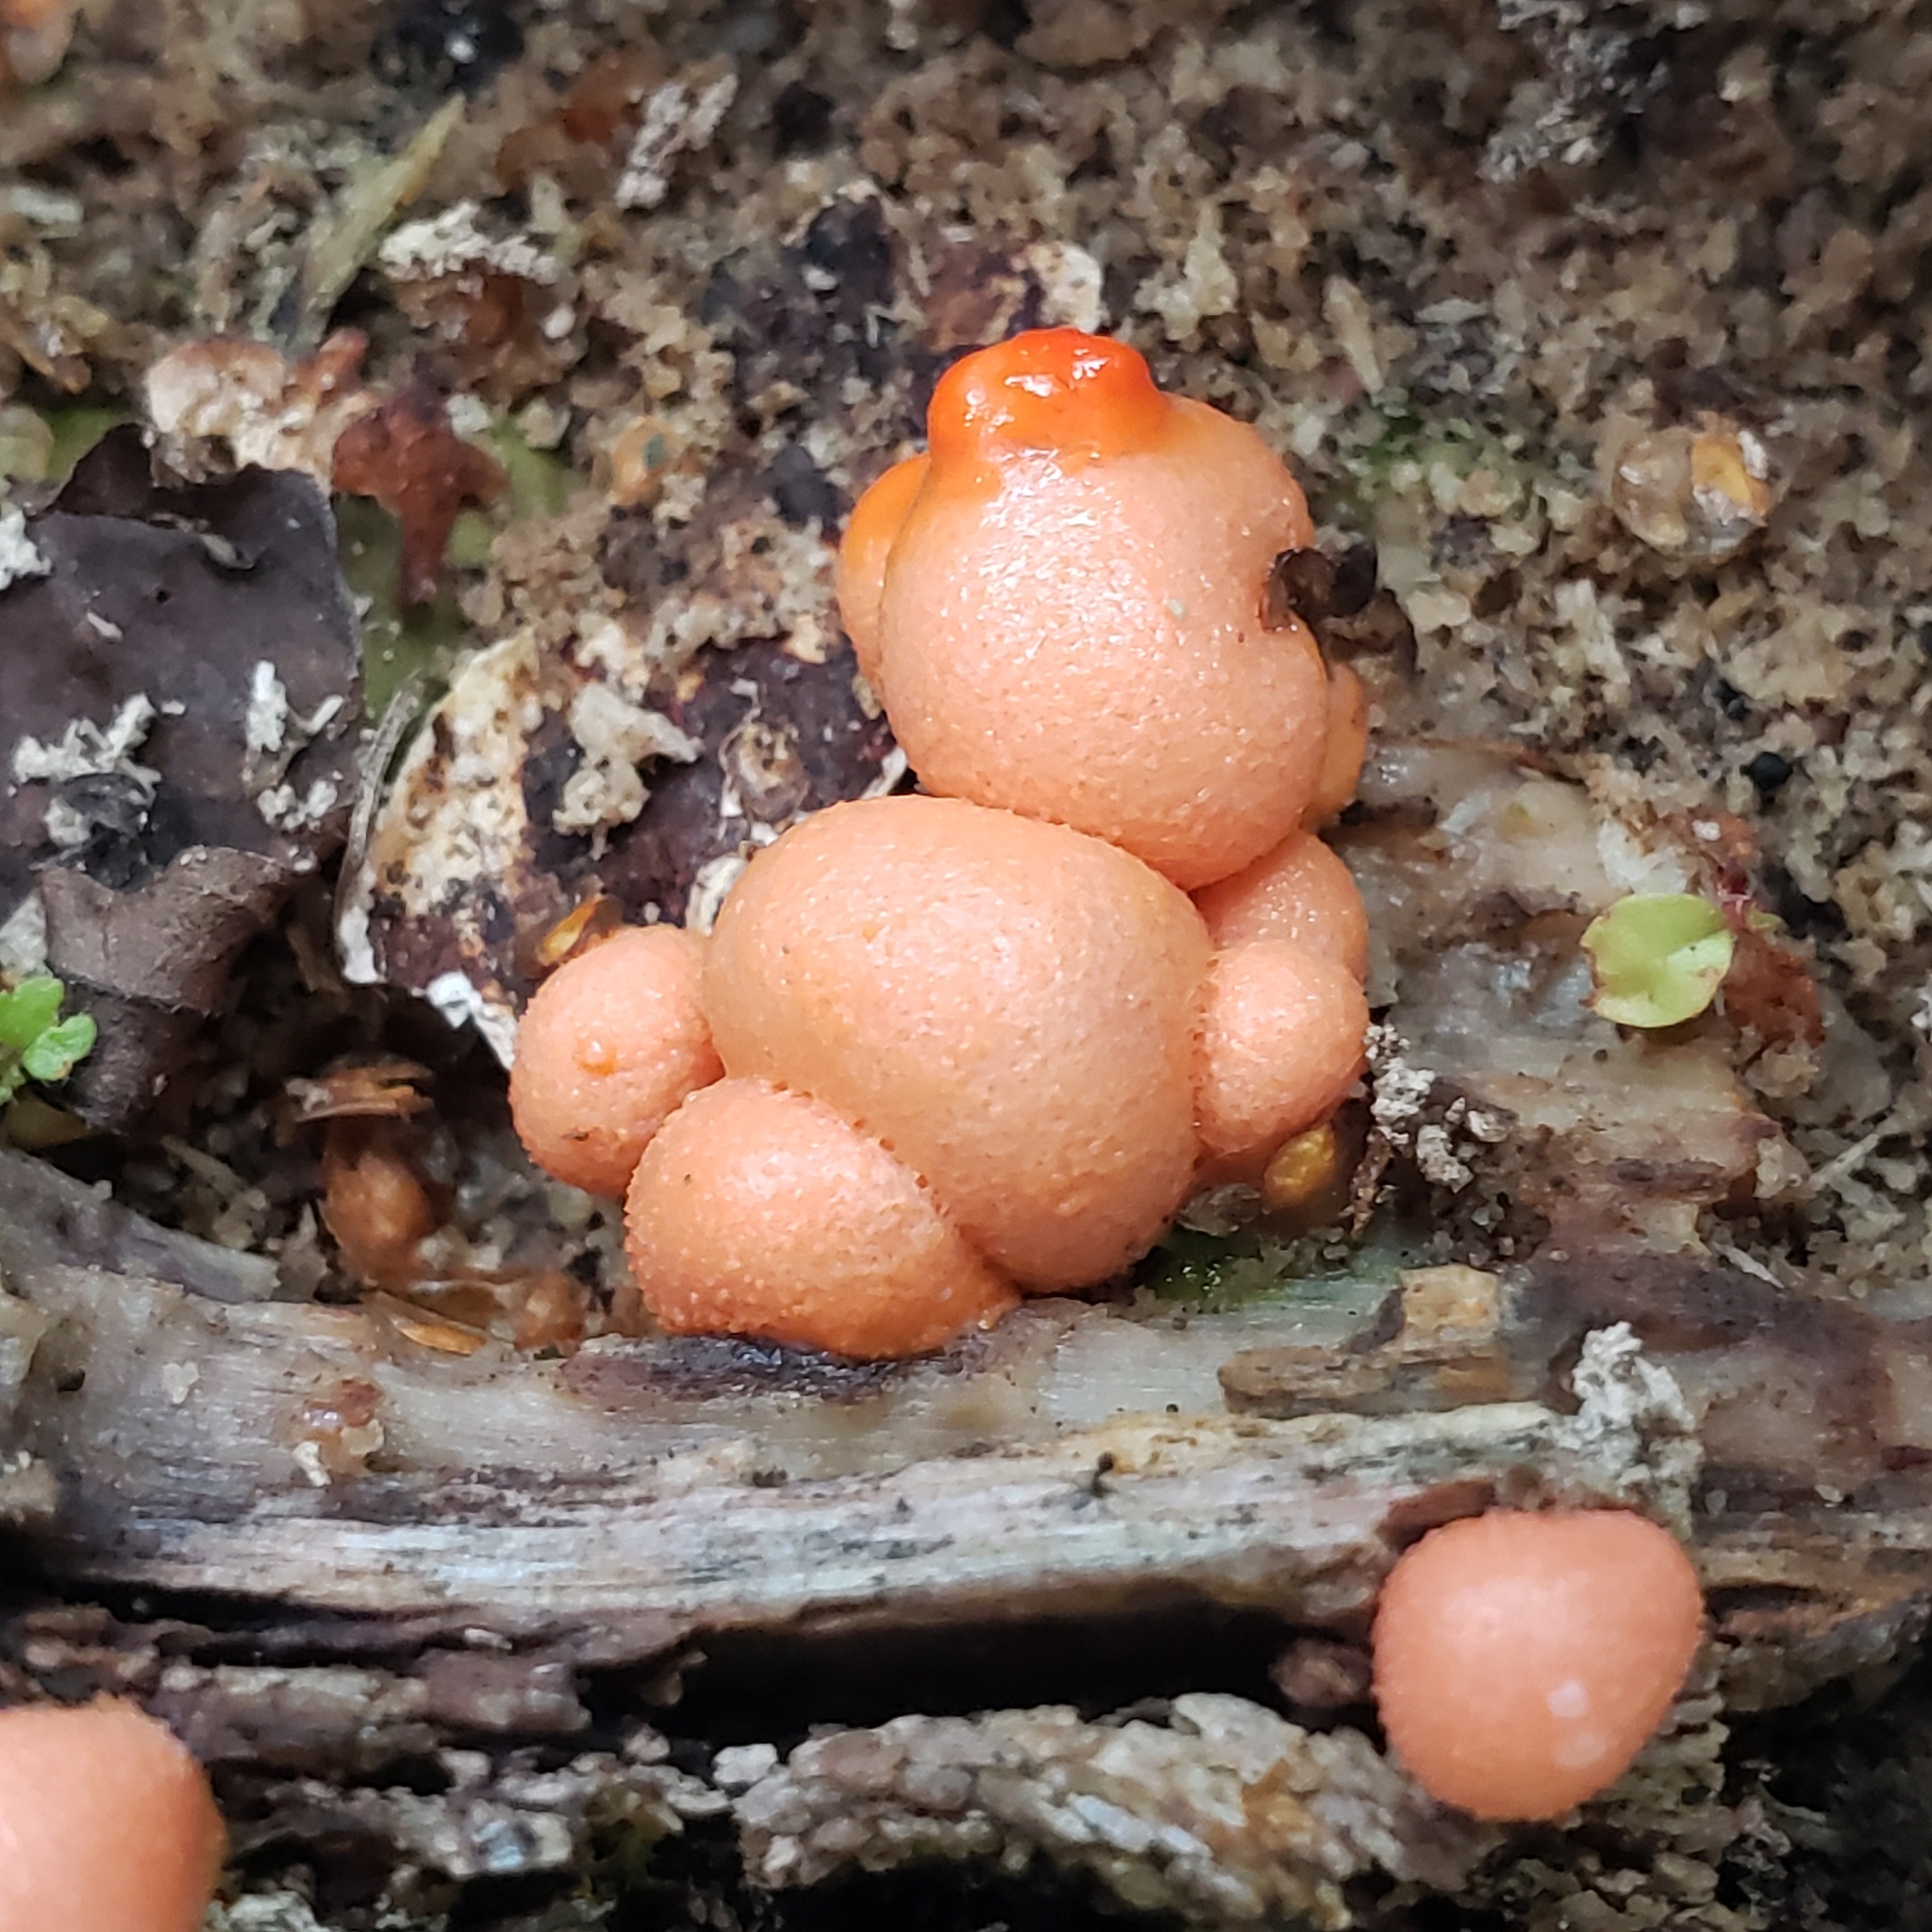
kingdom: Protozoa
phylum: Mycetozoa
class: Myxomycetes
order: Cribrariales
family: Tubiferaceae
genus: Lycogala
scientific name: Lycogala epidendrum
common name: Wolf's milk
